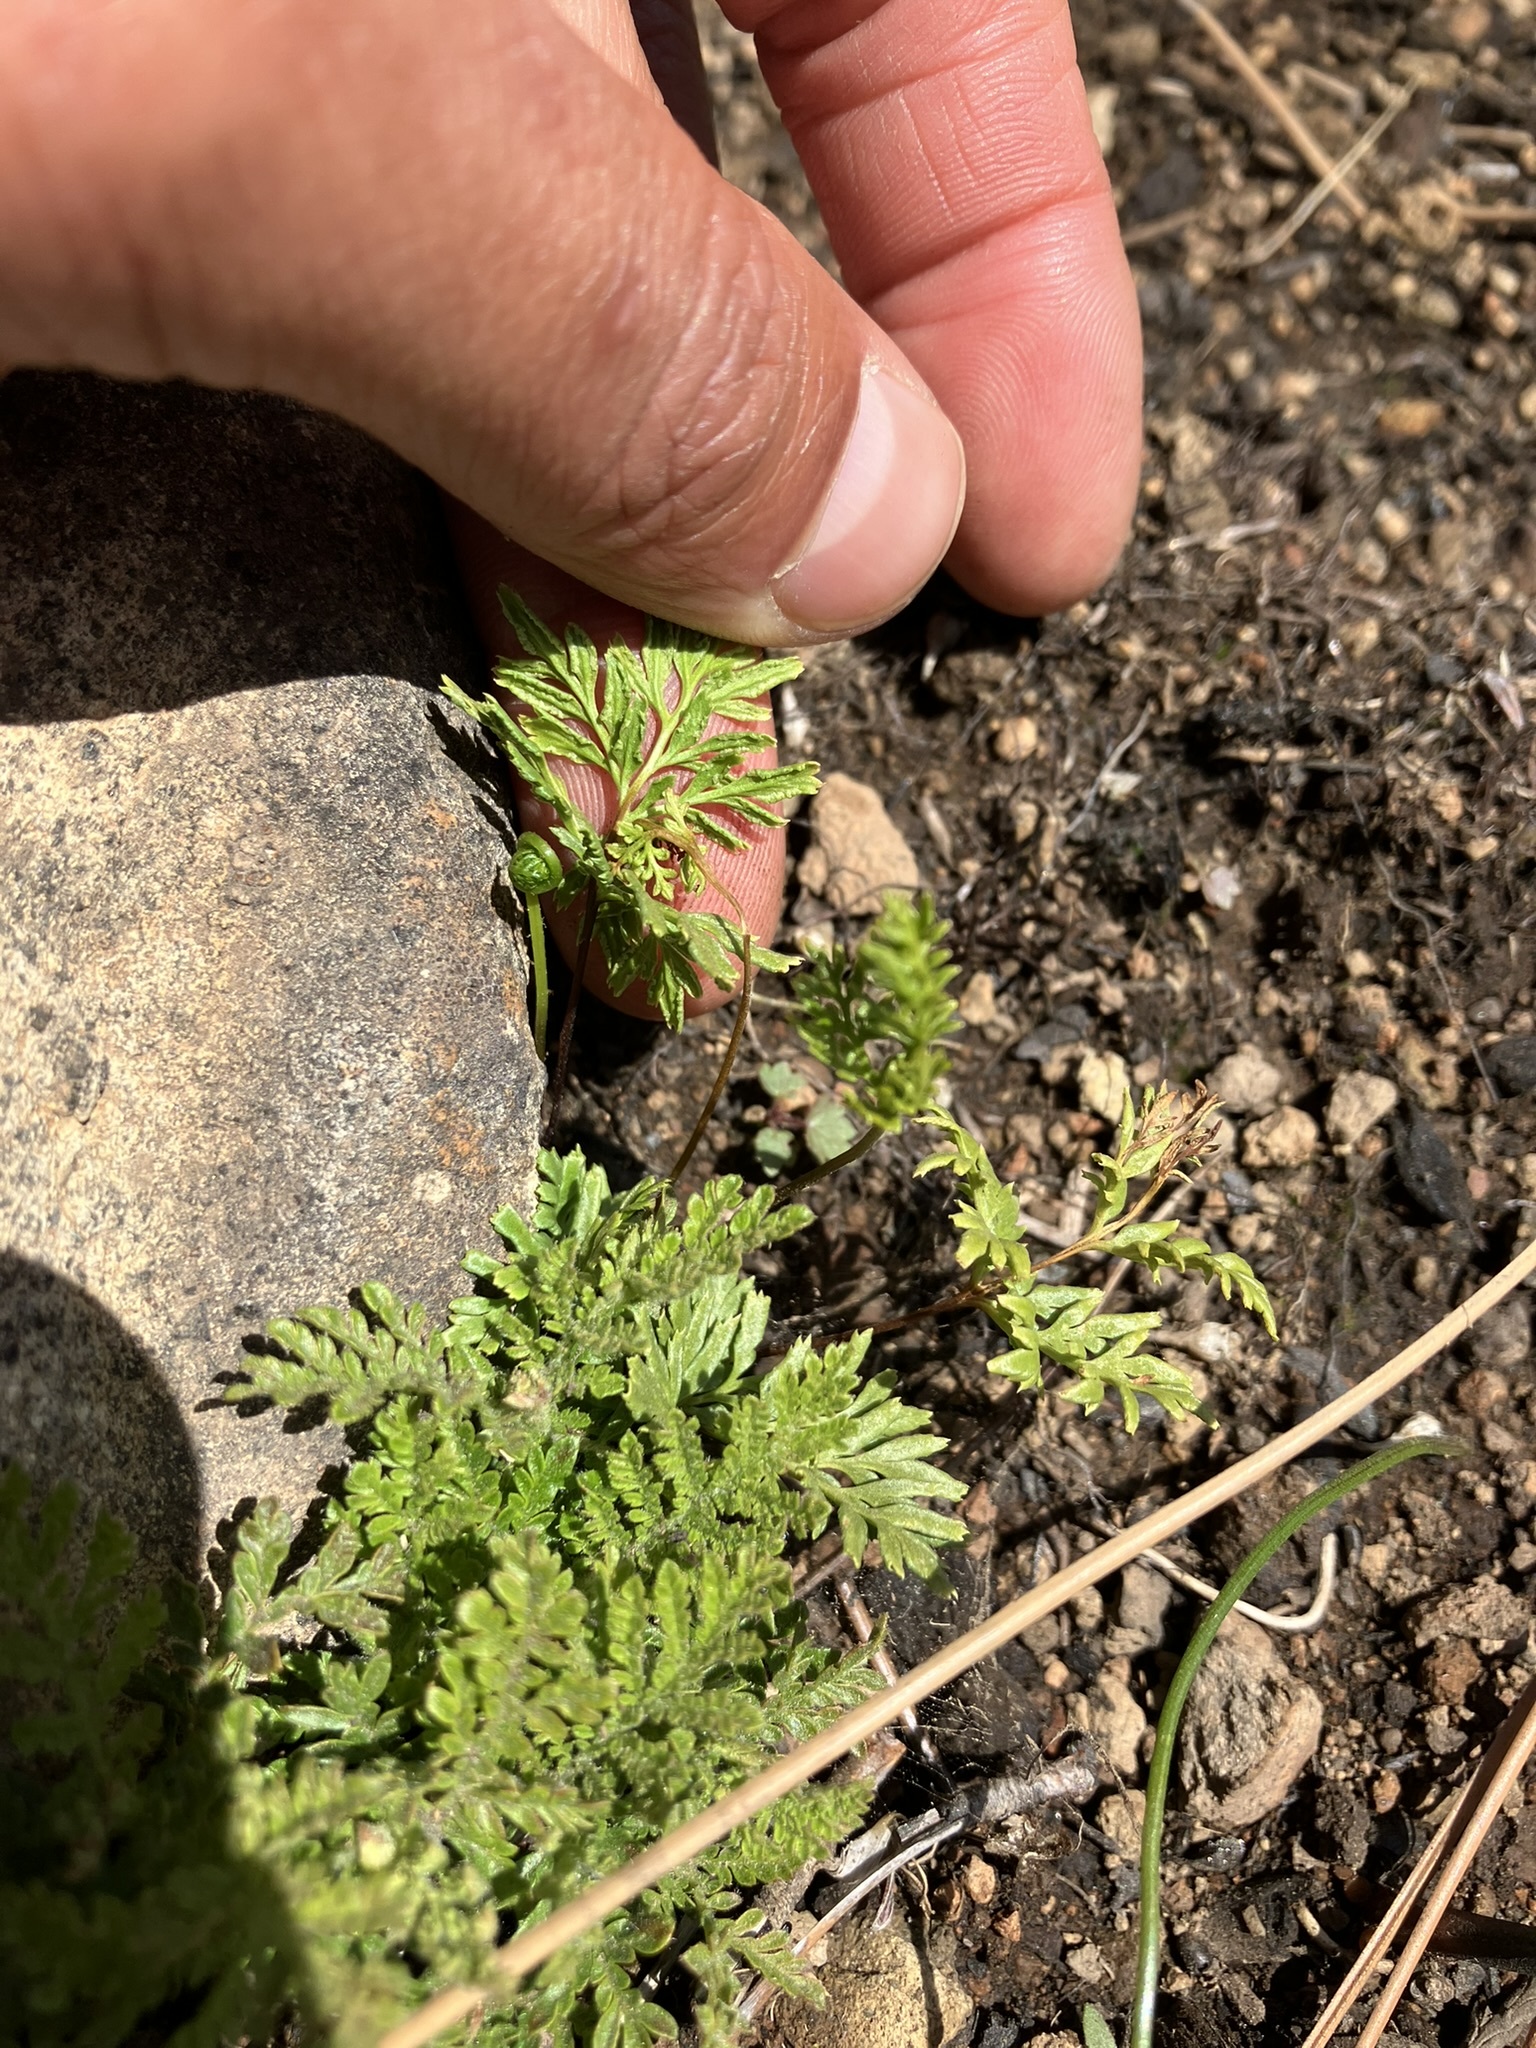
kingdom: Plantae
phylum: Tracheophyta
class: Polypodiopsida
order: Polypodiales
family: Pteridaceae
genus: Aspidotis
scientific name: Aspidotis densa
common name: Indian's dream
